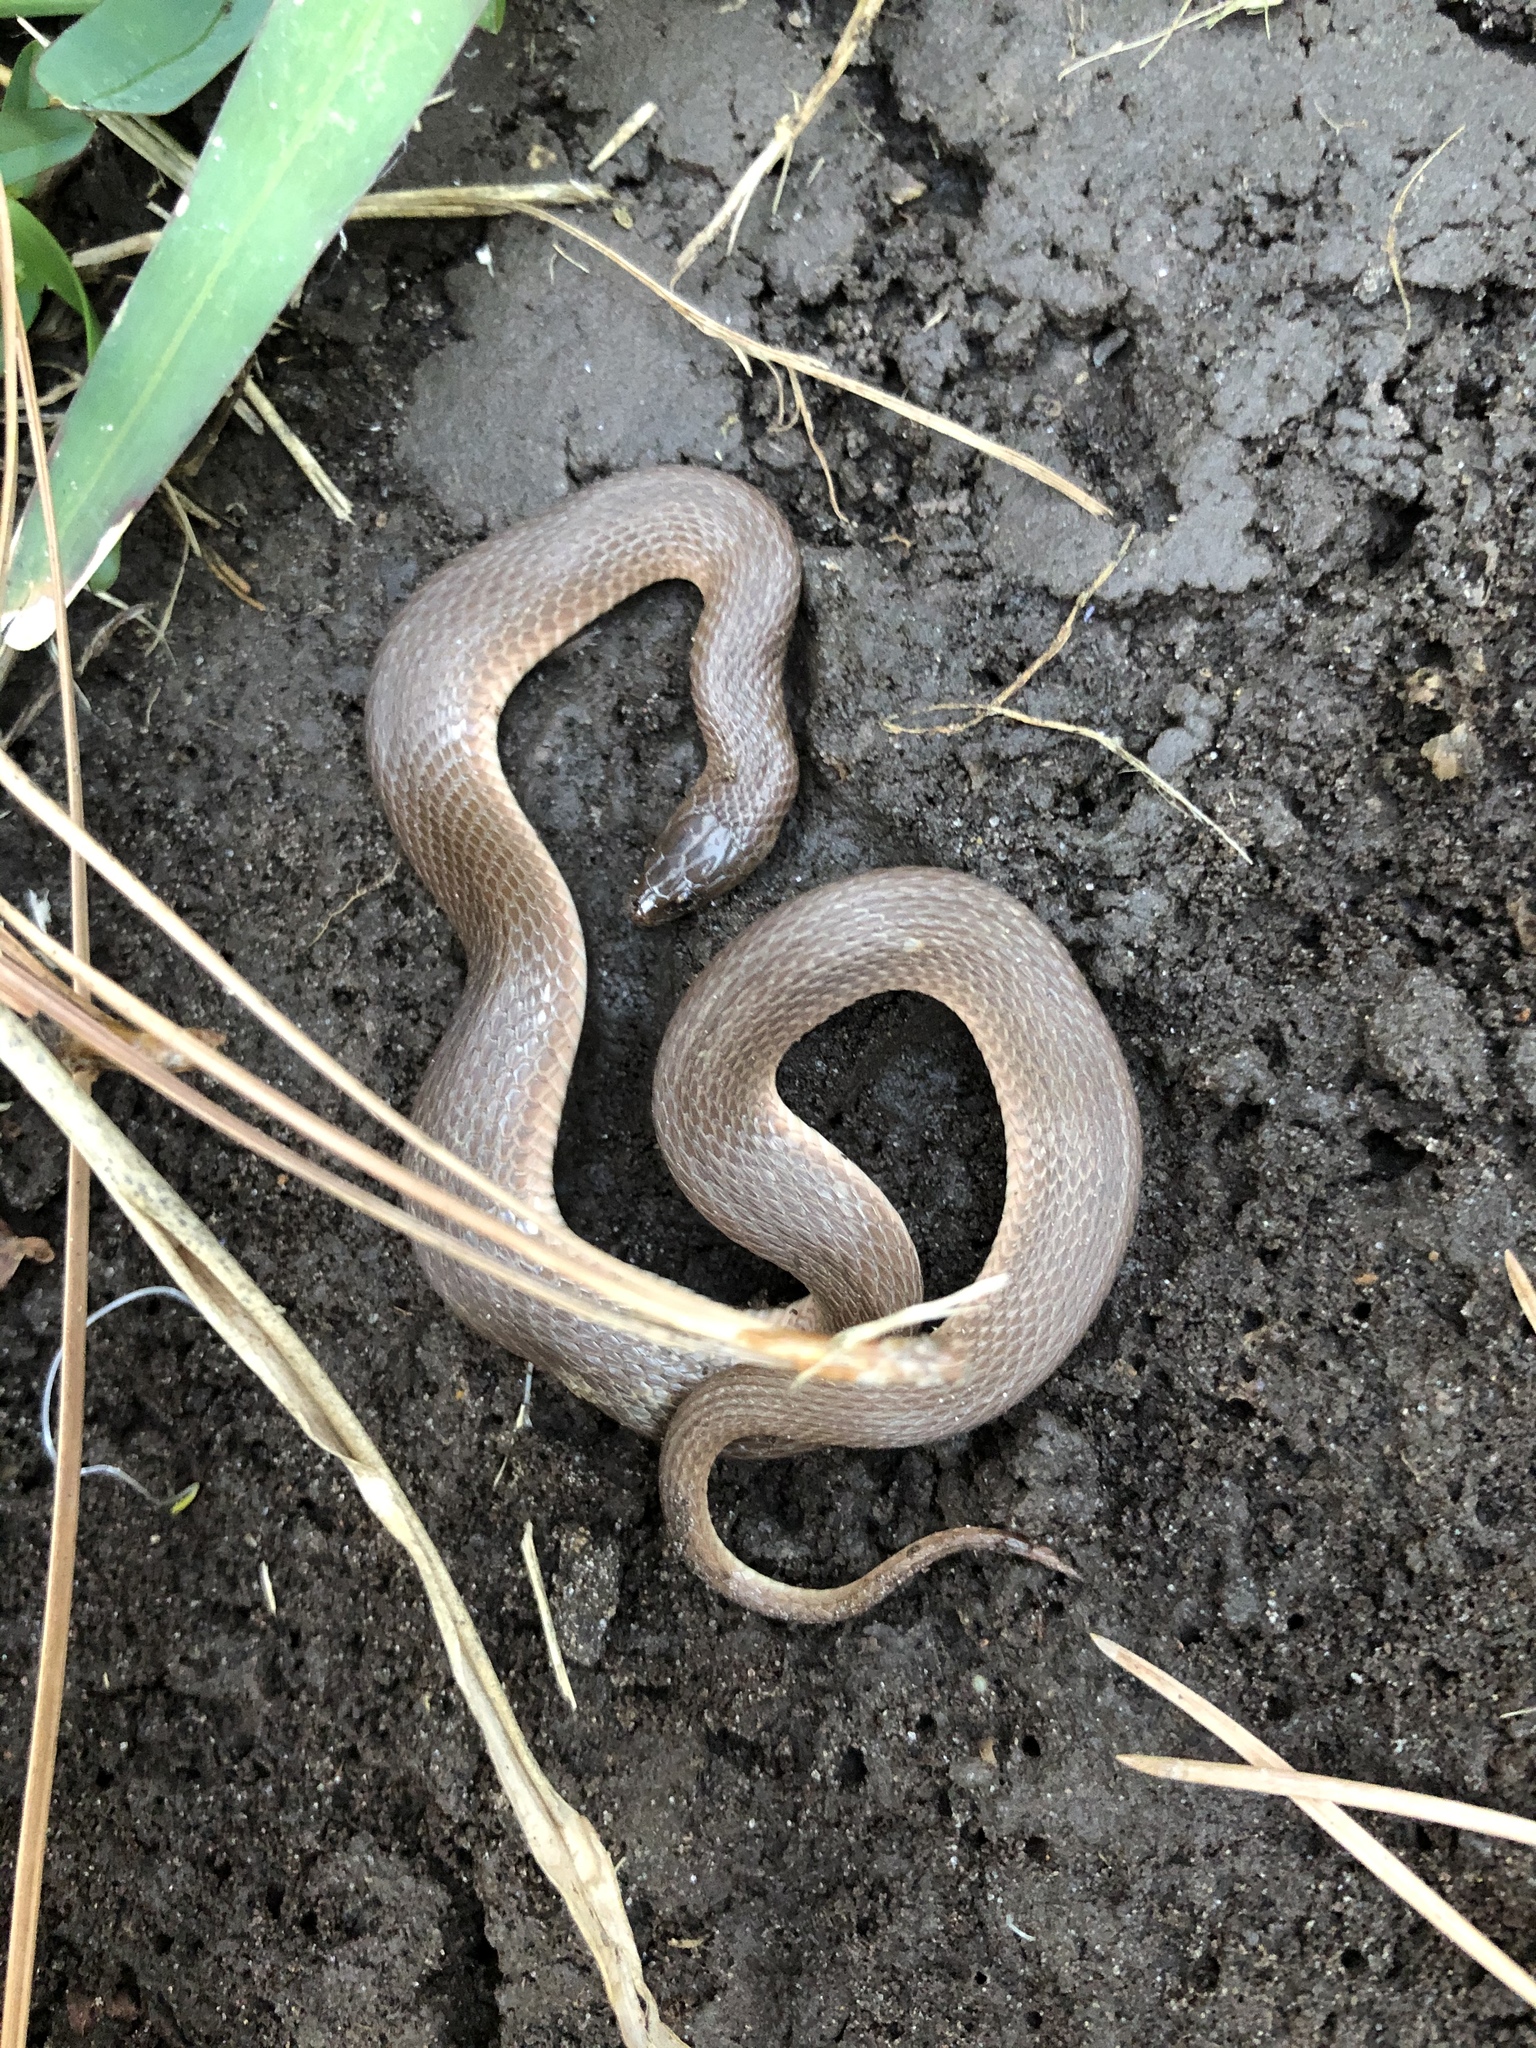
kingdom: Animalia
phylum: Chordata
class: Squamata
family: Colubridae
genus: Haldea
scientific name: Haldea striatula
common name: Rough earth snake
